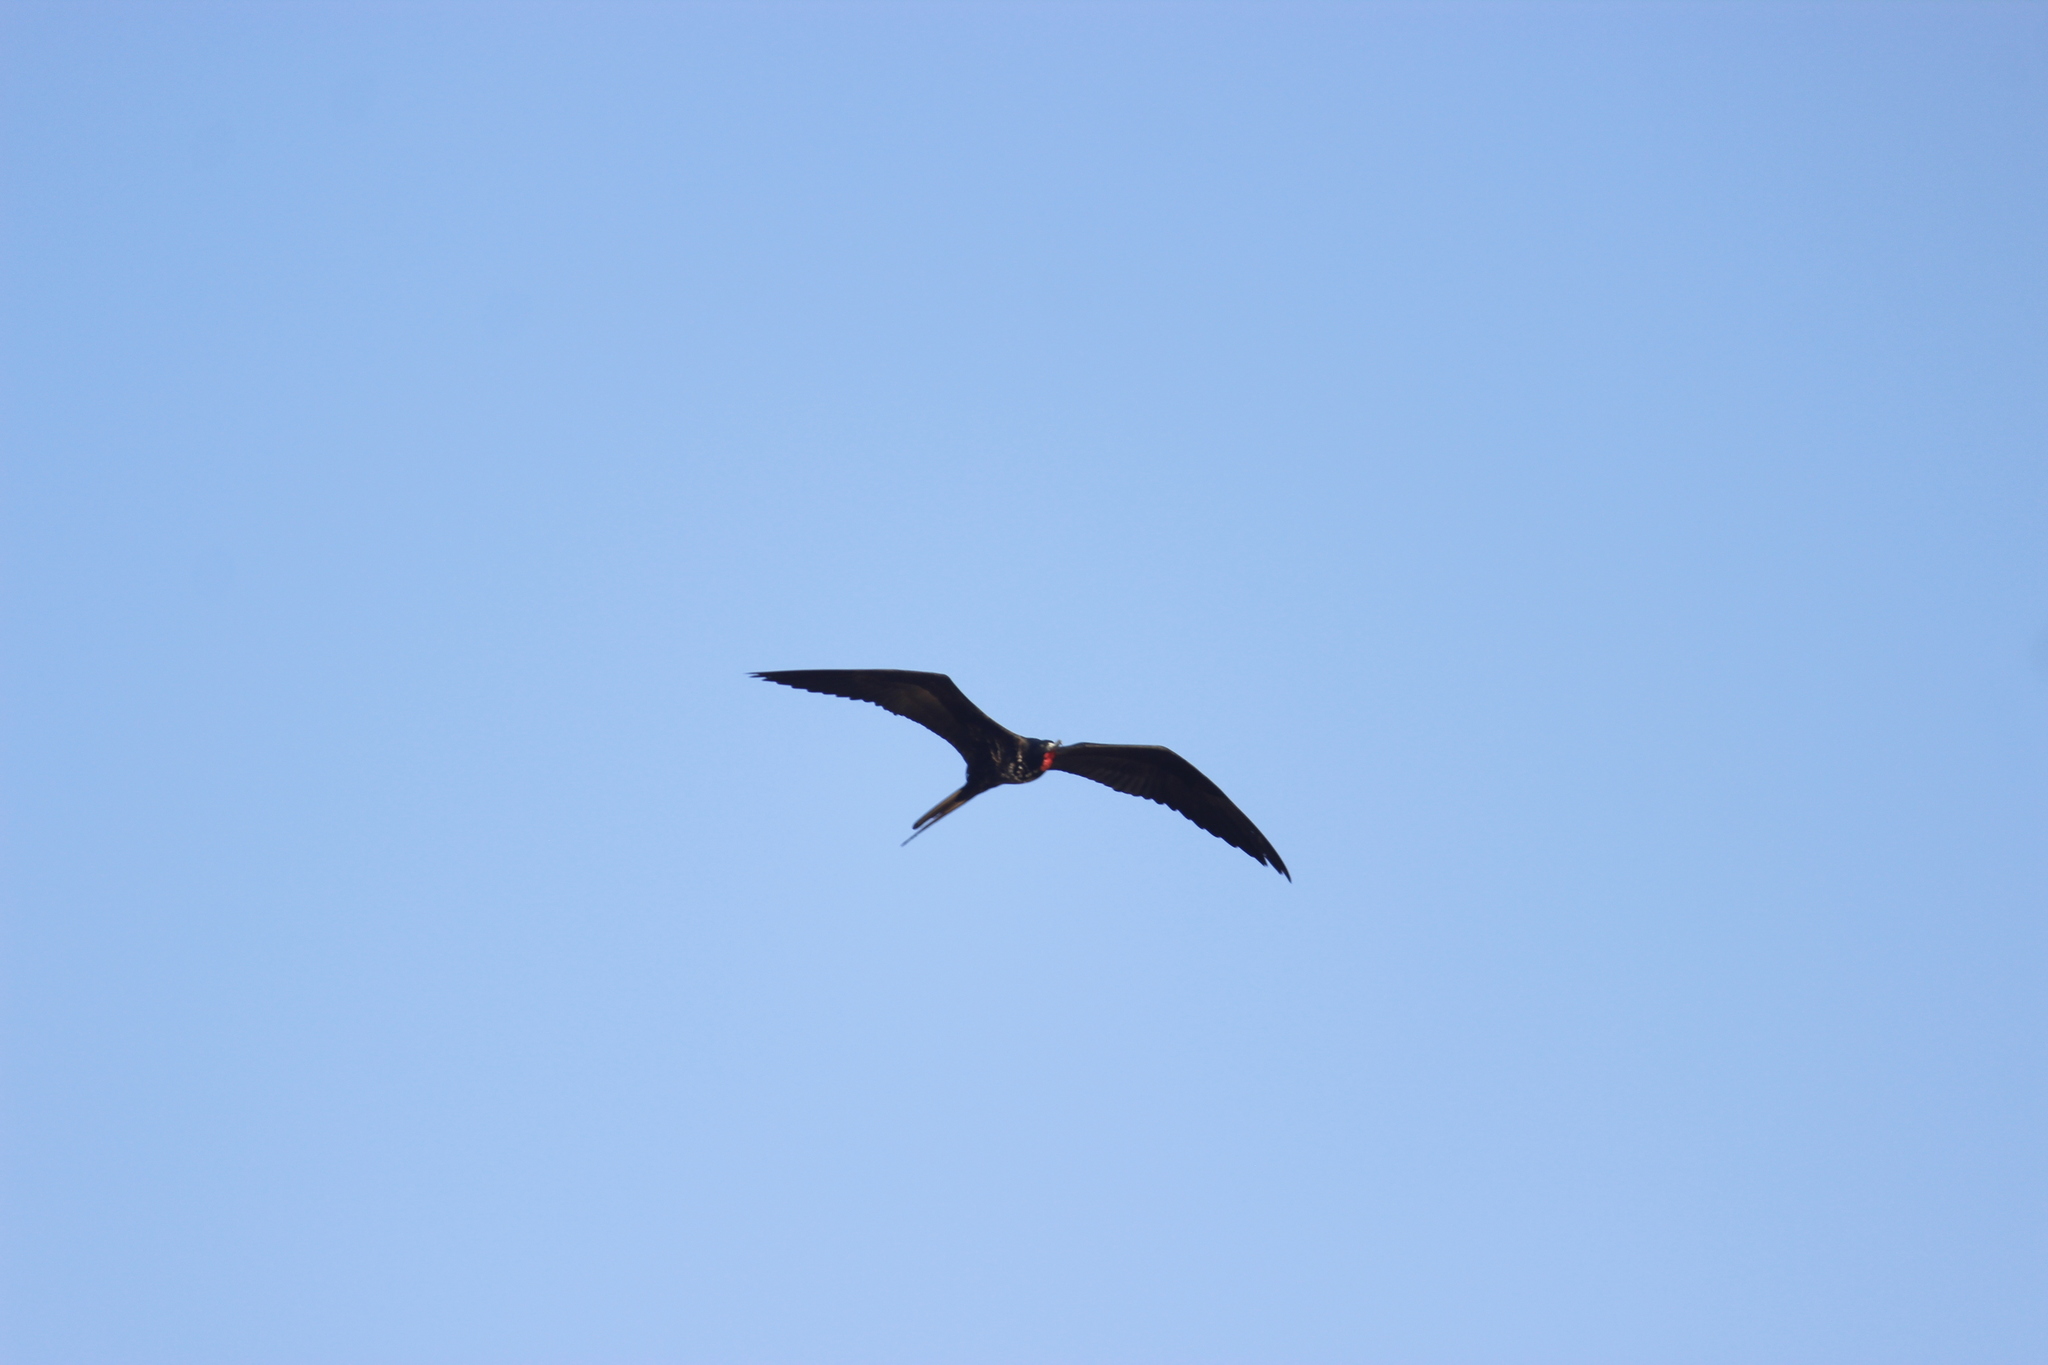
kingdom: Animalia
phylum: Chordata
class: Aves
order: Suliformes
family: Fregatidae
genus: Fregata
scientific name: Fregata magnificens
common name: Magnificent frigatebird
